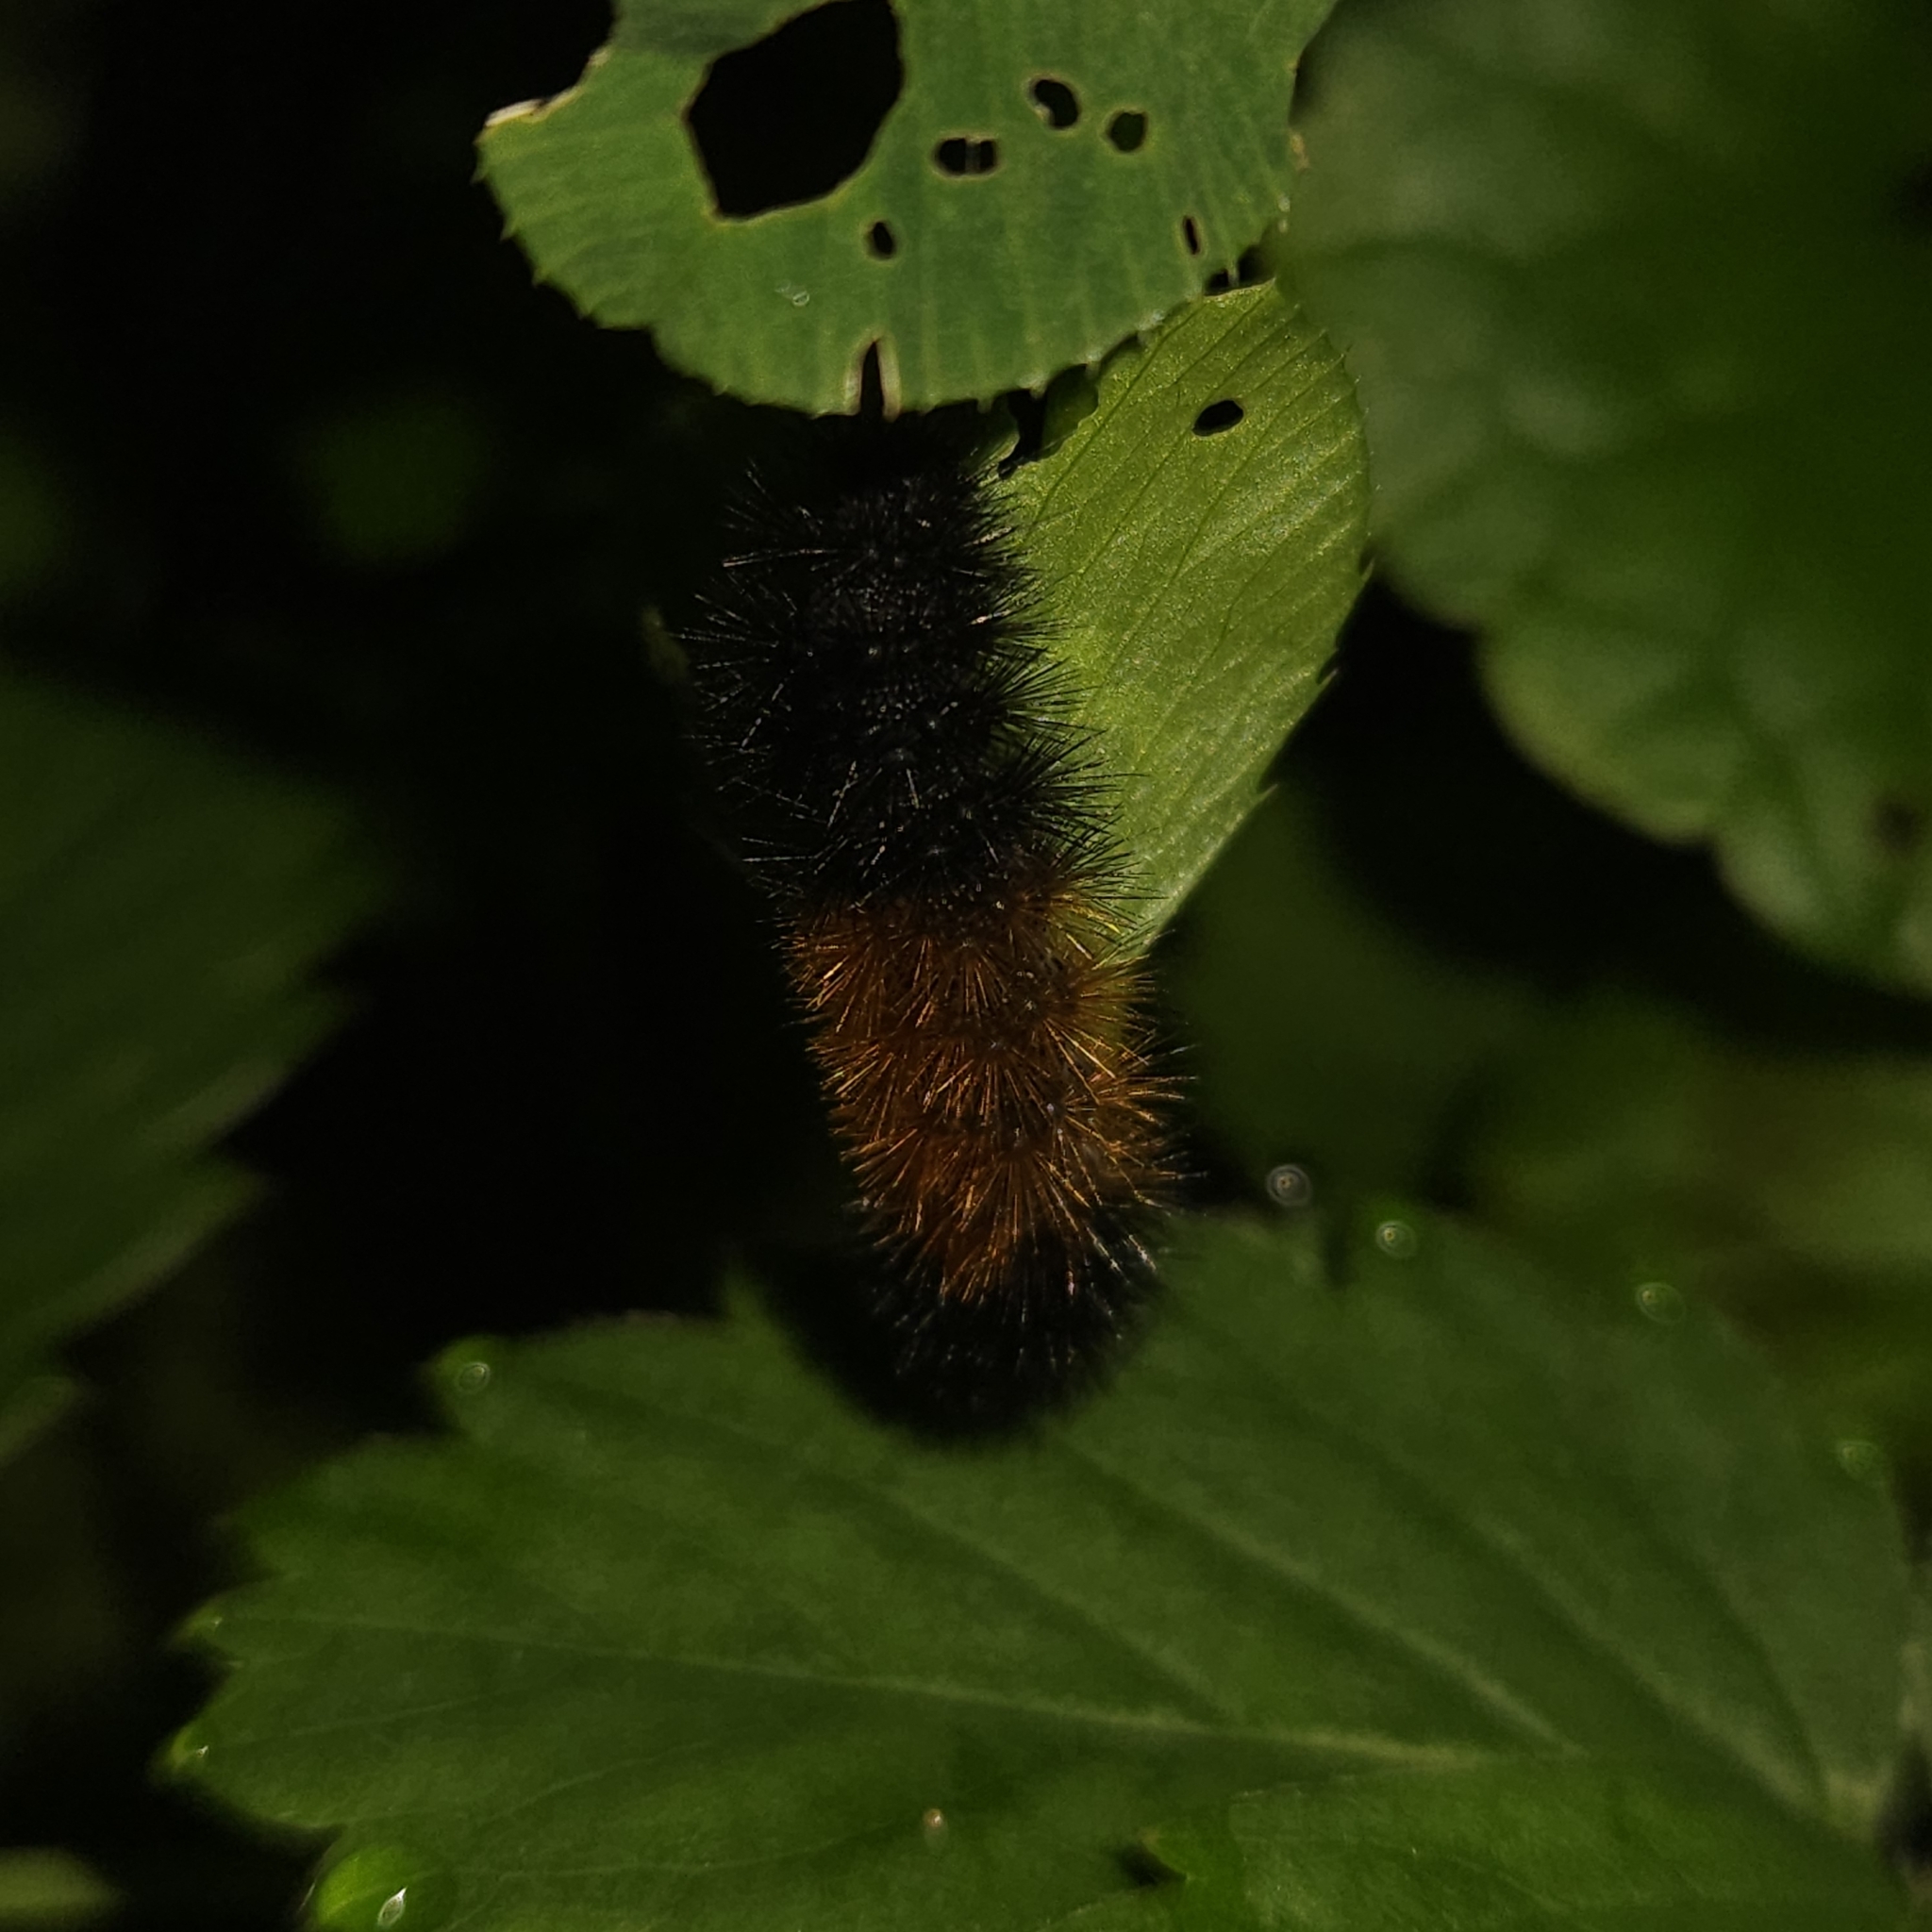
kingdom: Animalia
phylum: Arthropoda
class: Insecta
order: Lepidoptera
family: Erebidae
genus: Pyrrharctia
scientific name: Pyrrharctia isabella
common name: Isabella tiger moth
